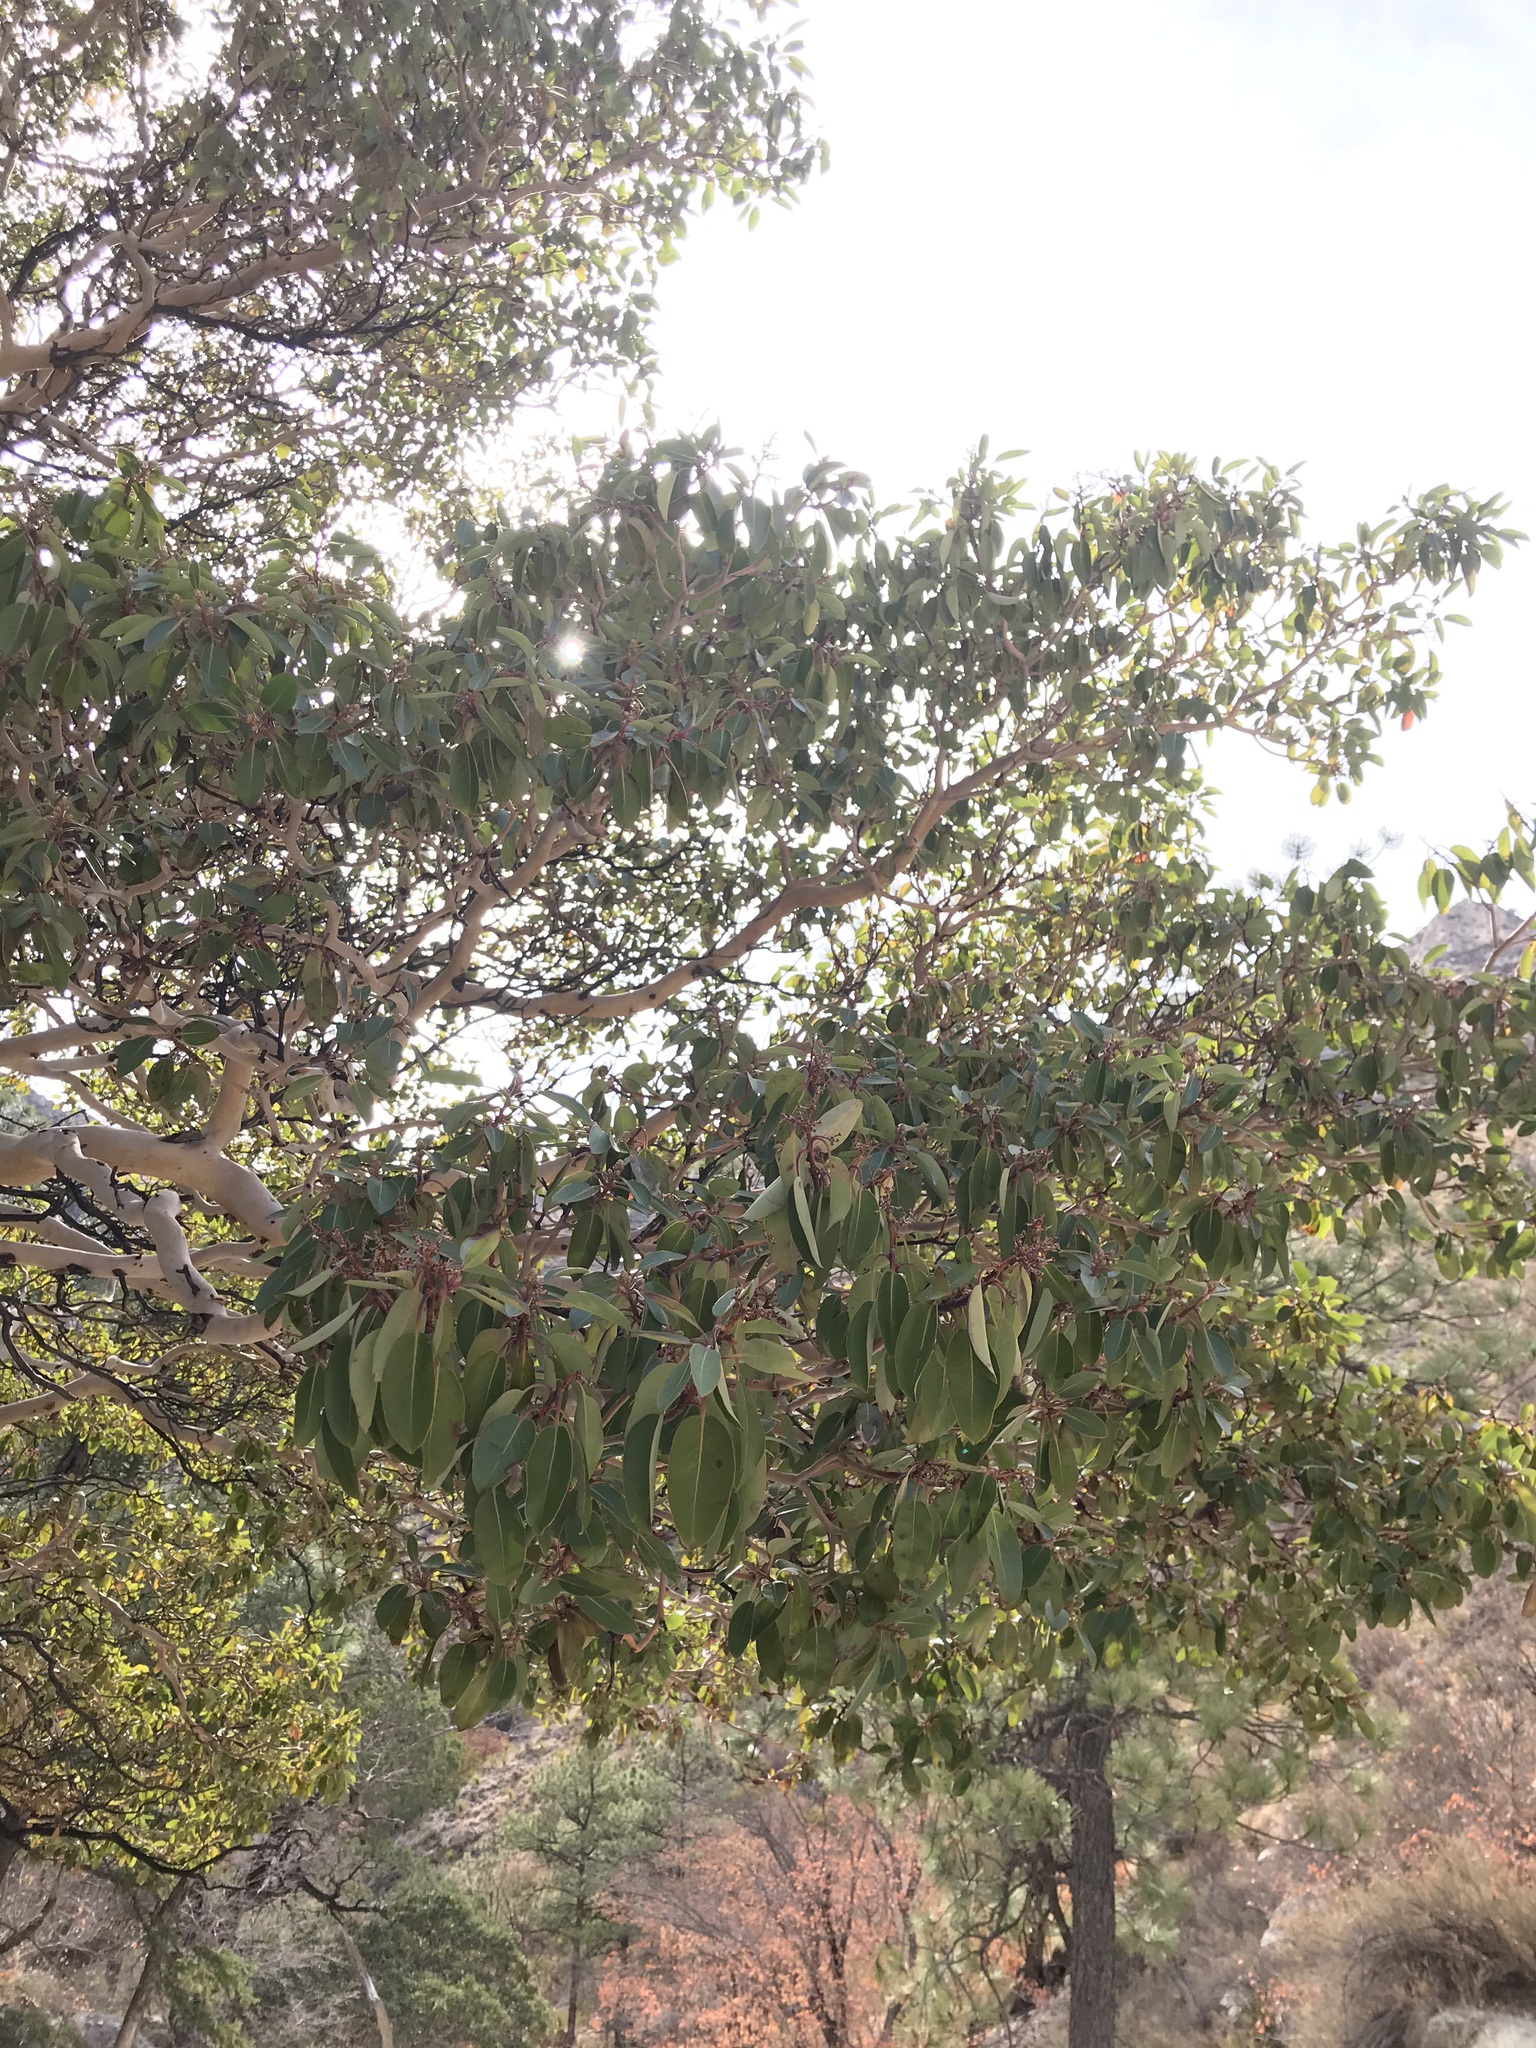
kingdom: Plantae
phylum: Tracheophyta
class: Magnoliopsida
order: Ericales
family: Ericaceae
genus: Arbutus
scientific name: Arbutus xalapensis
